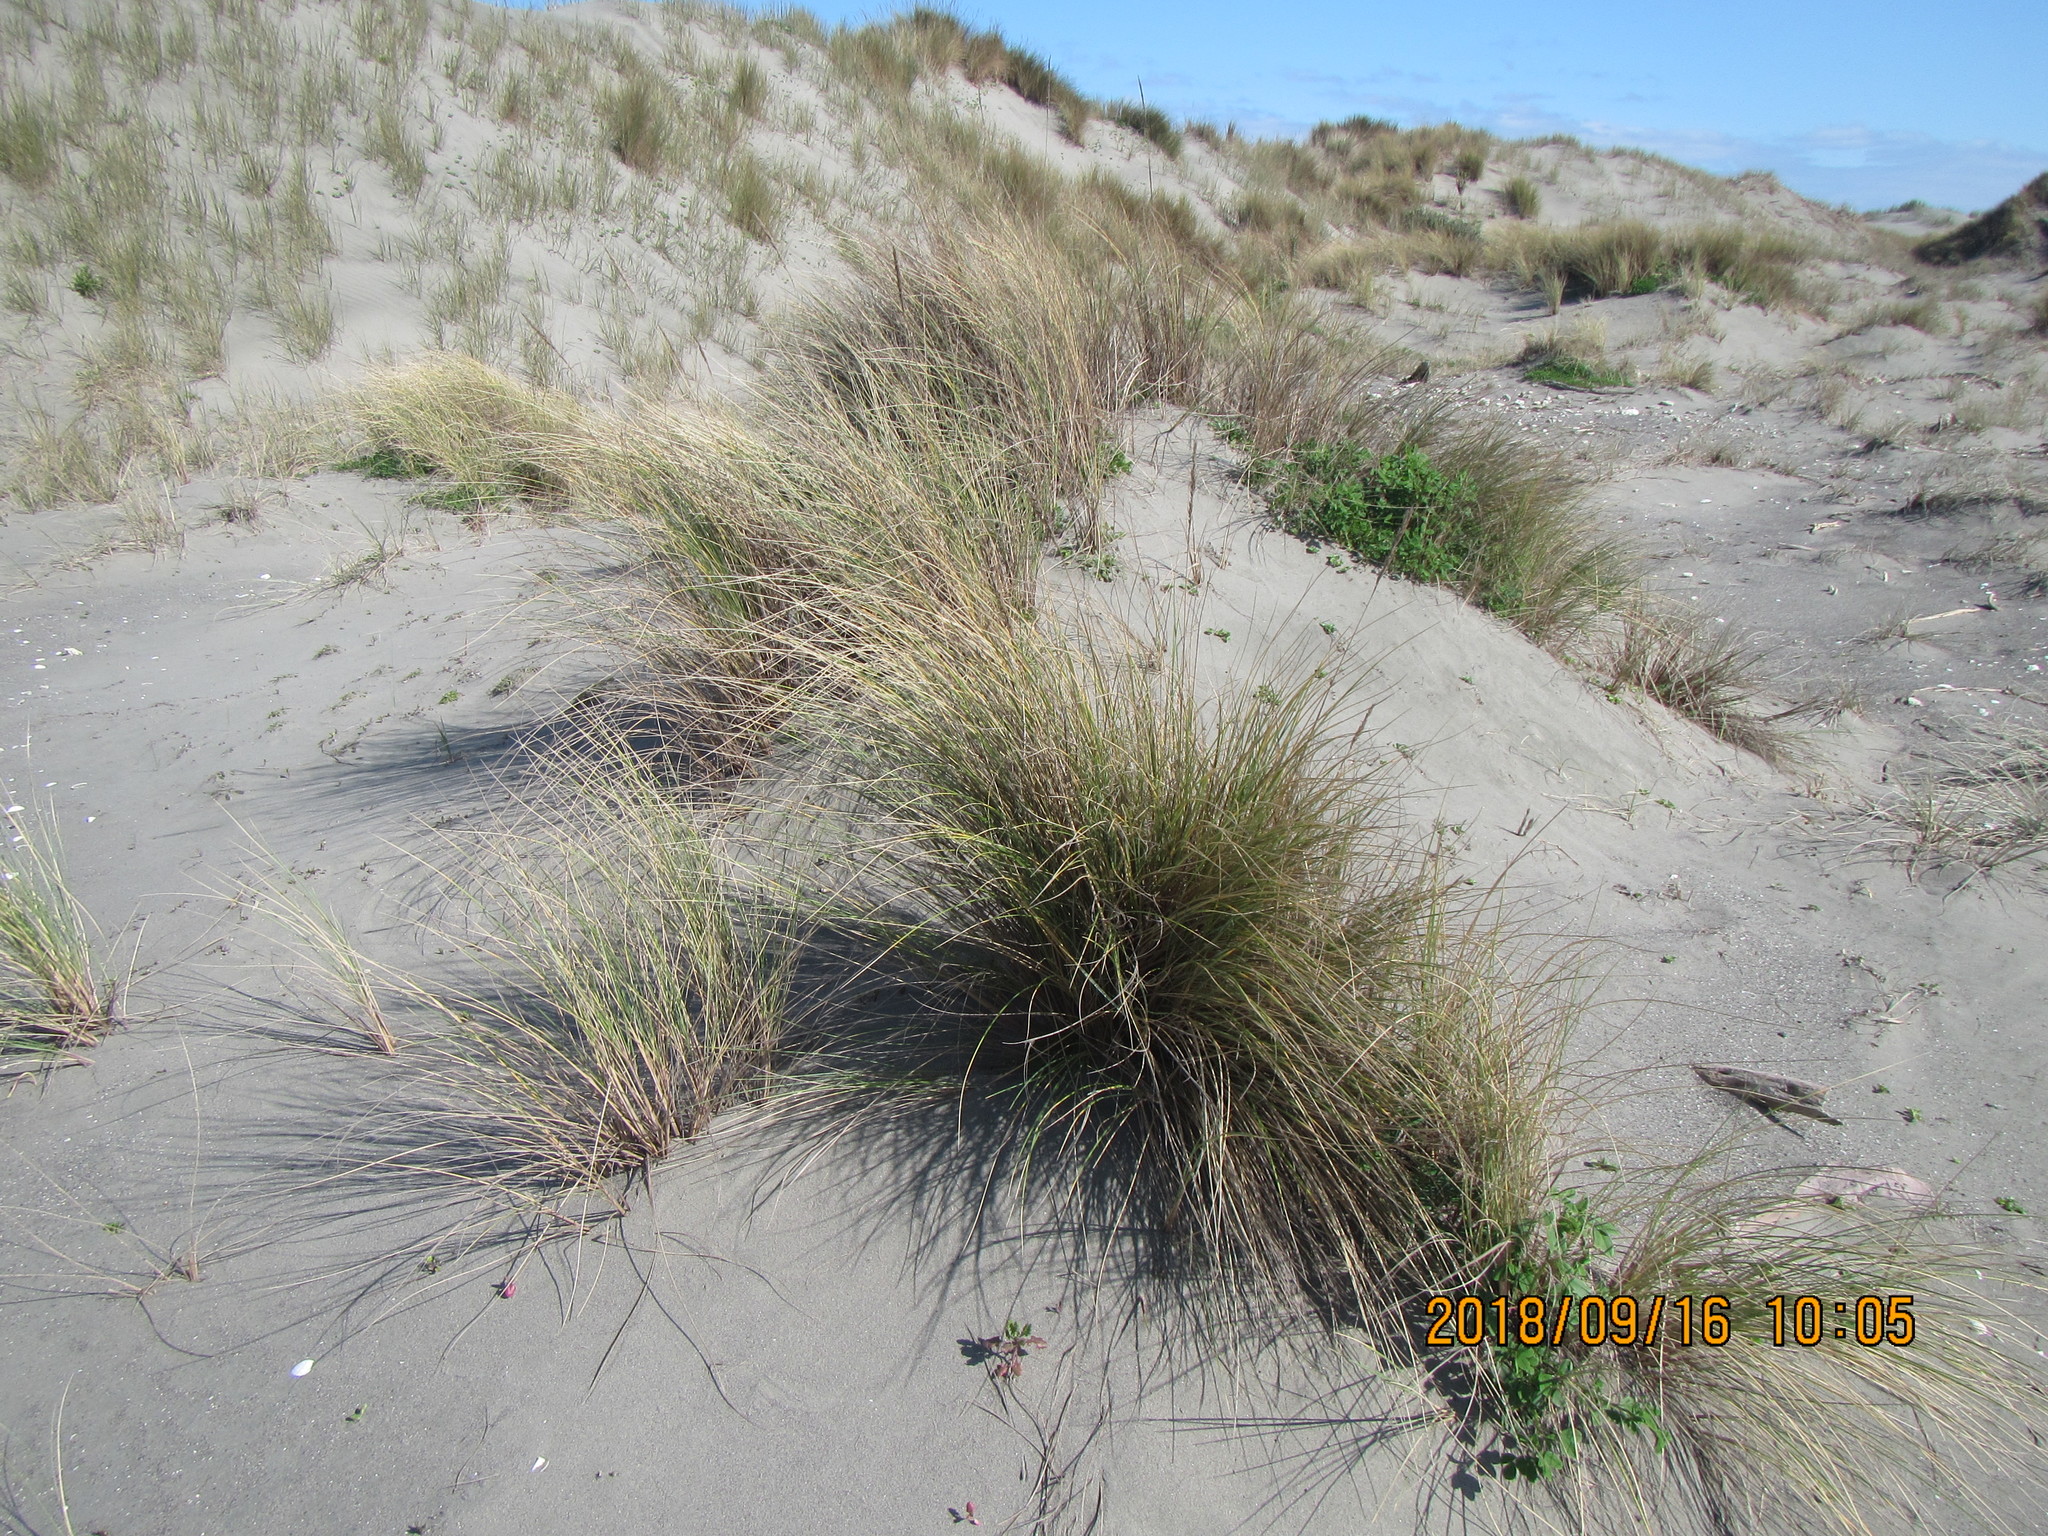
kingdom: Plantae
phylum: Tracheophyta
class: Liliopsida
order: Poales
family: Poaceae
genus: Calamagrostis
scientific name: Calamagrostis arenaria
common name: European beachgrass
